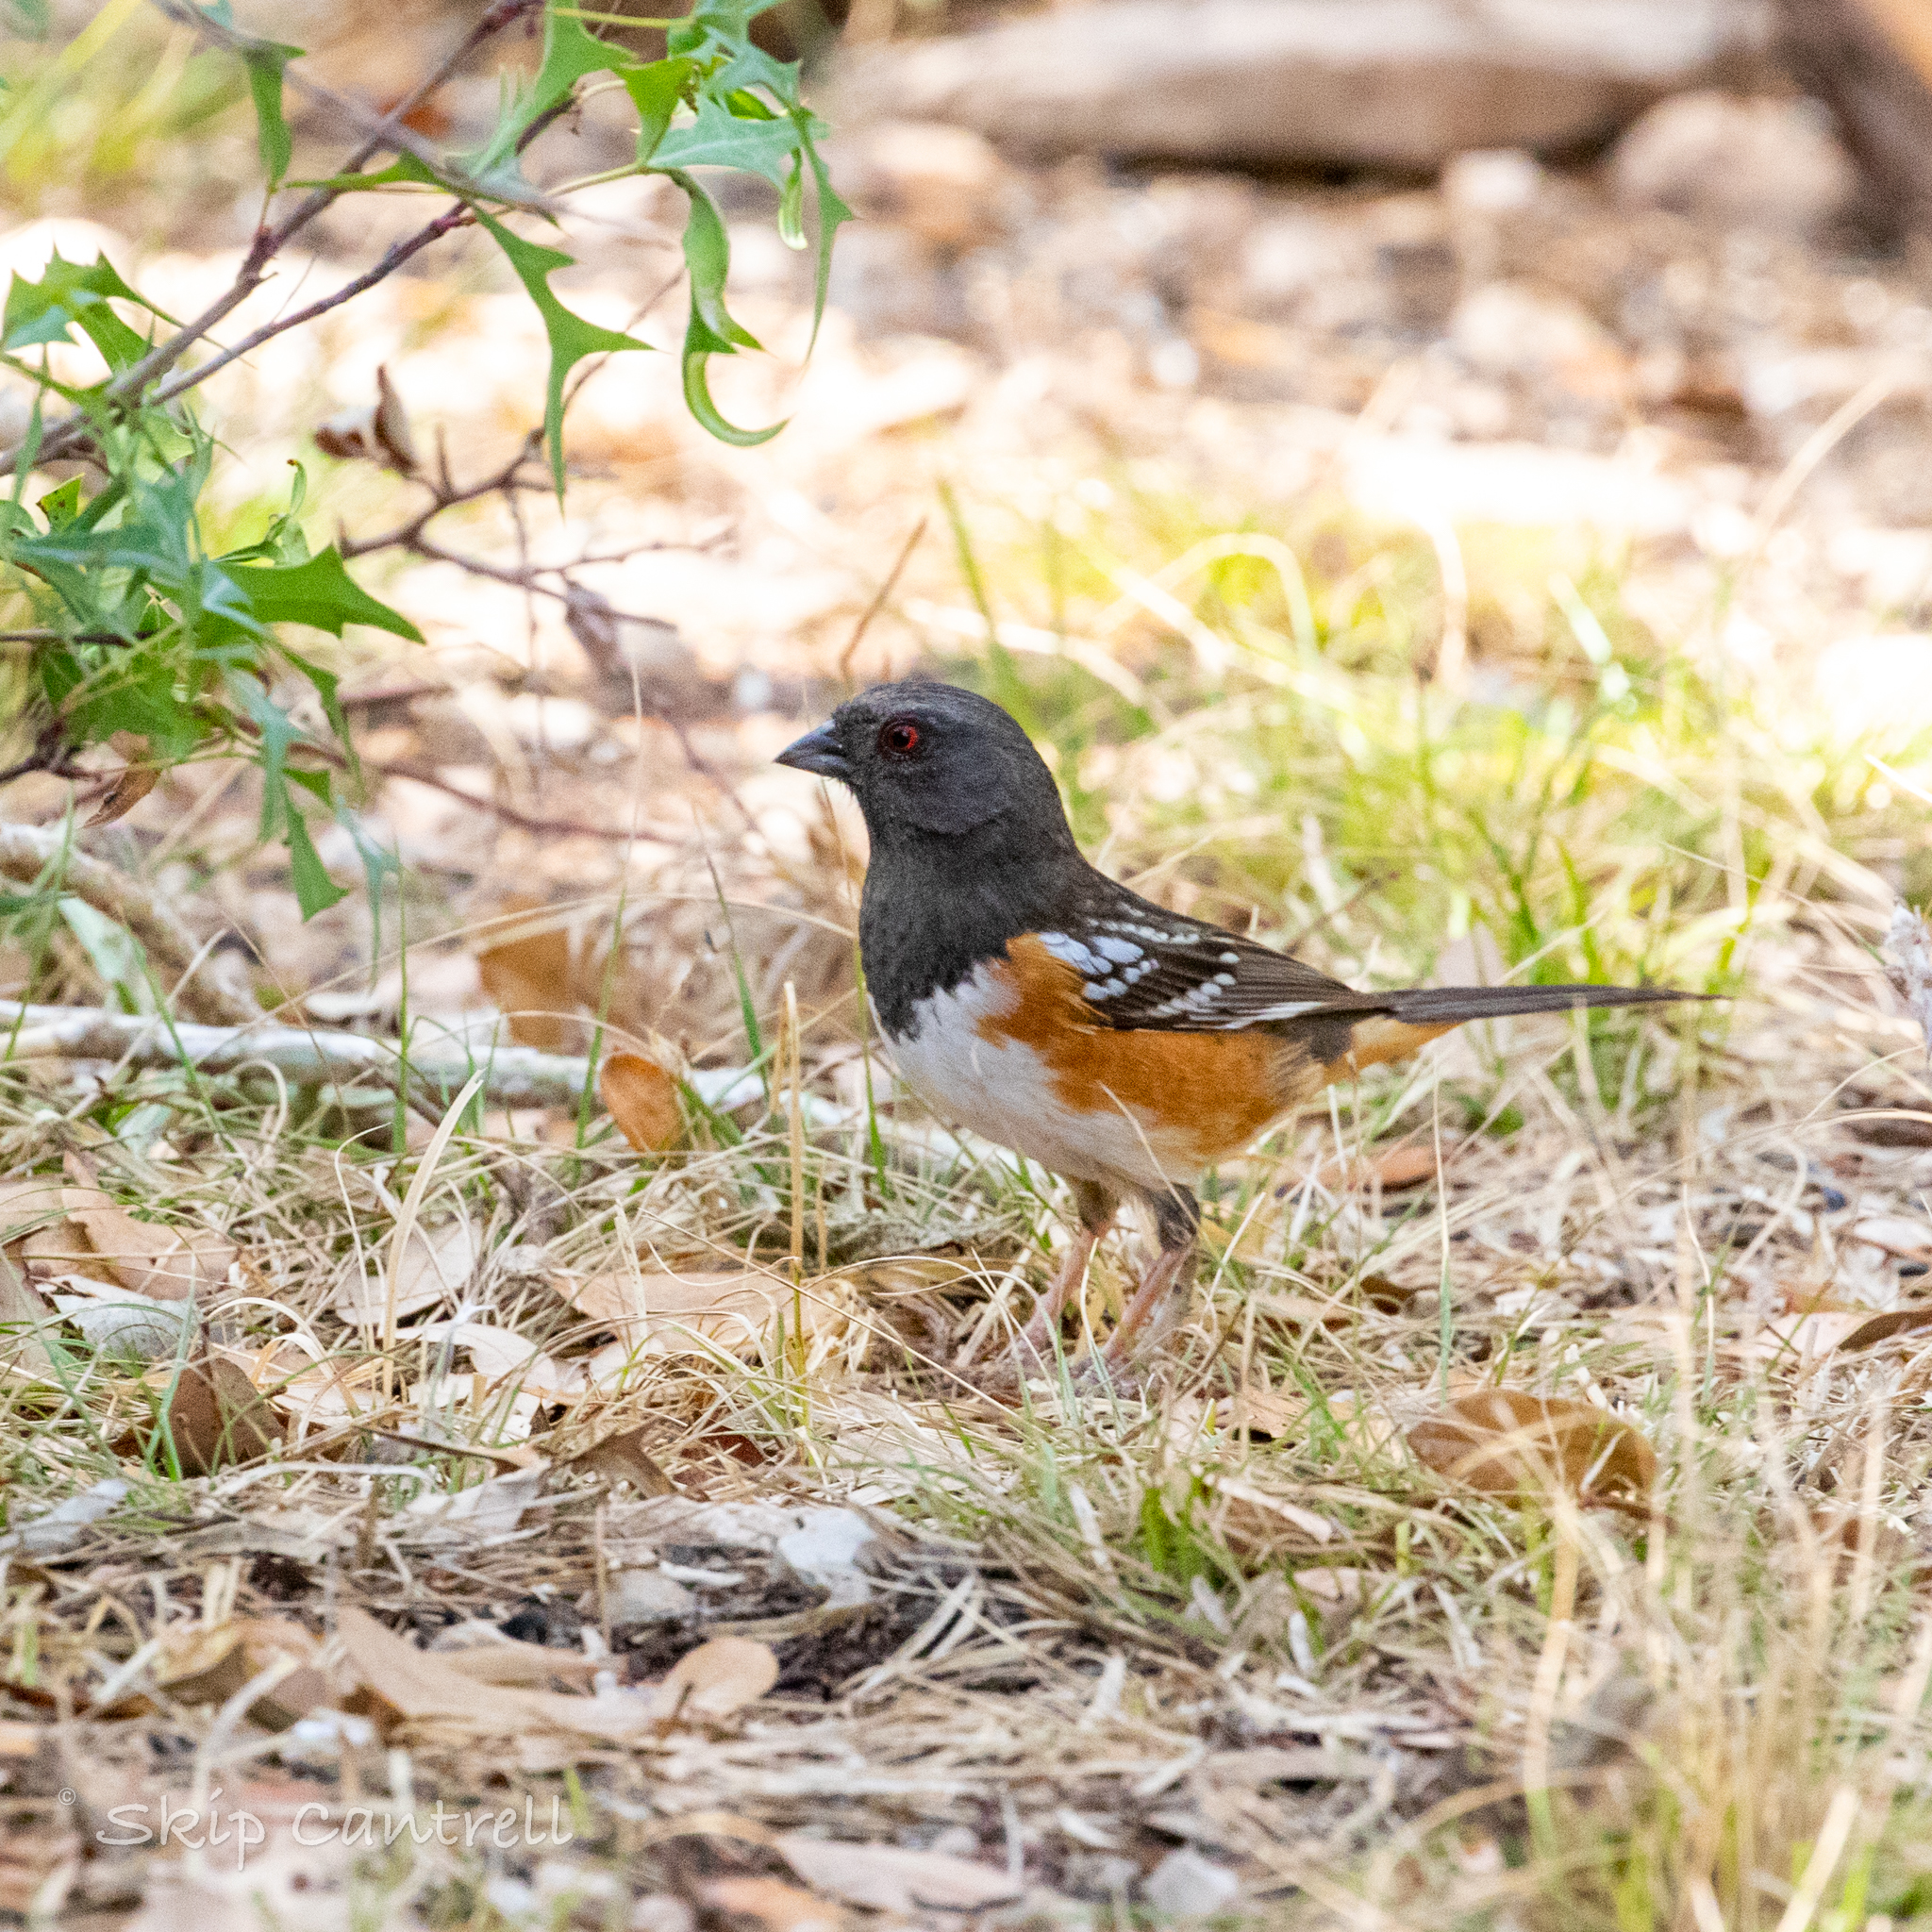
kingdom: Animalia
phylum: Chordata
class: Aves
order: Passeriformes
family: Passerellidae
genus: Pipilo
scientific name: Pipilo maculatus
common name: Spotted towhee
